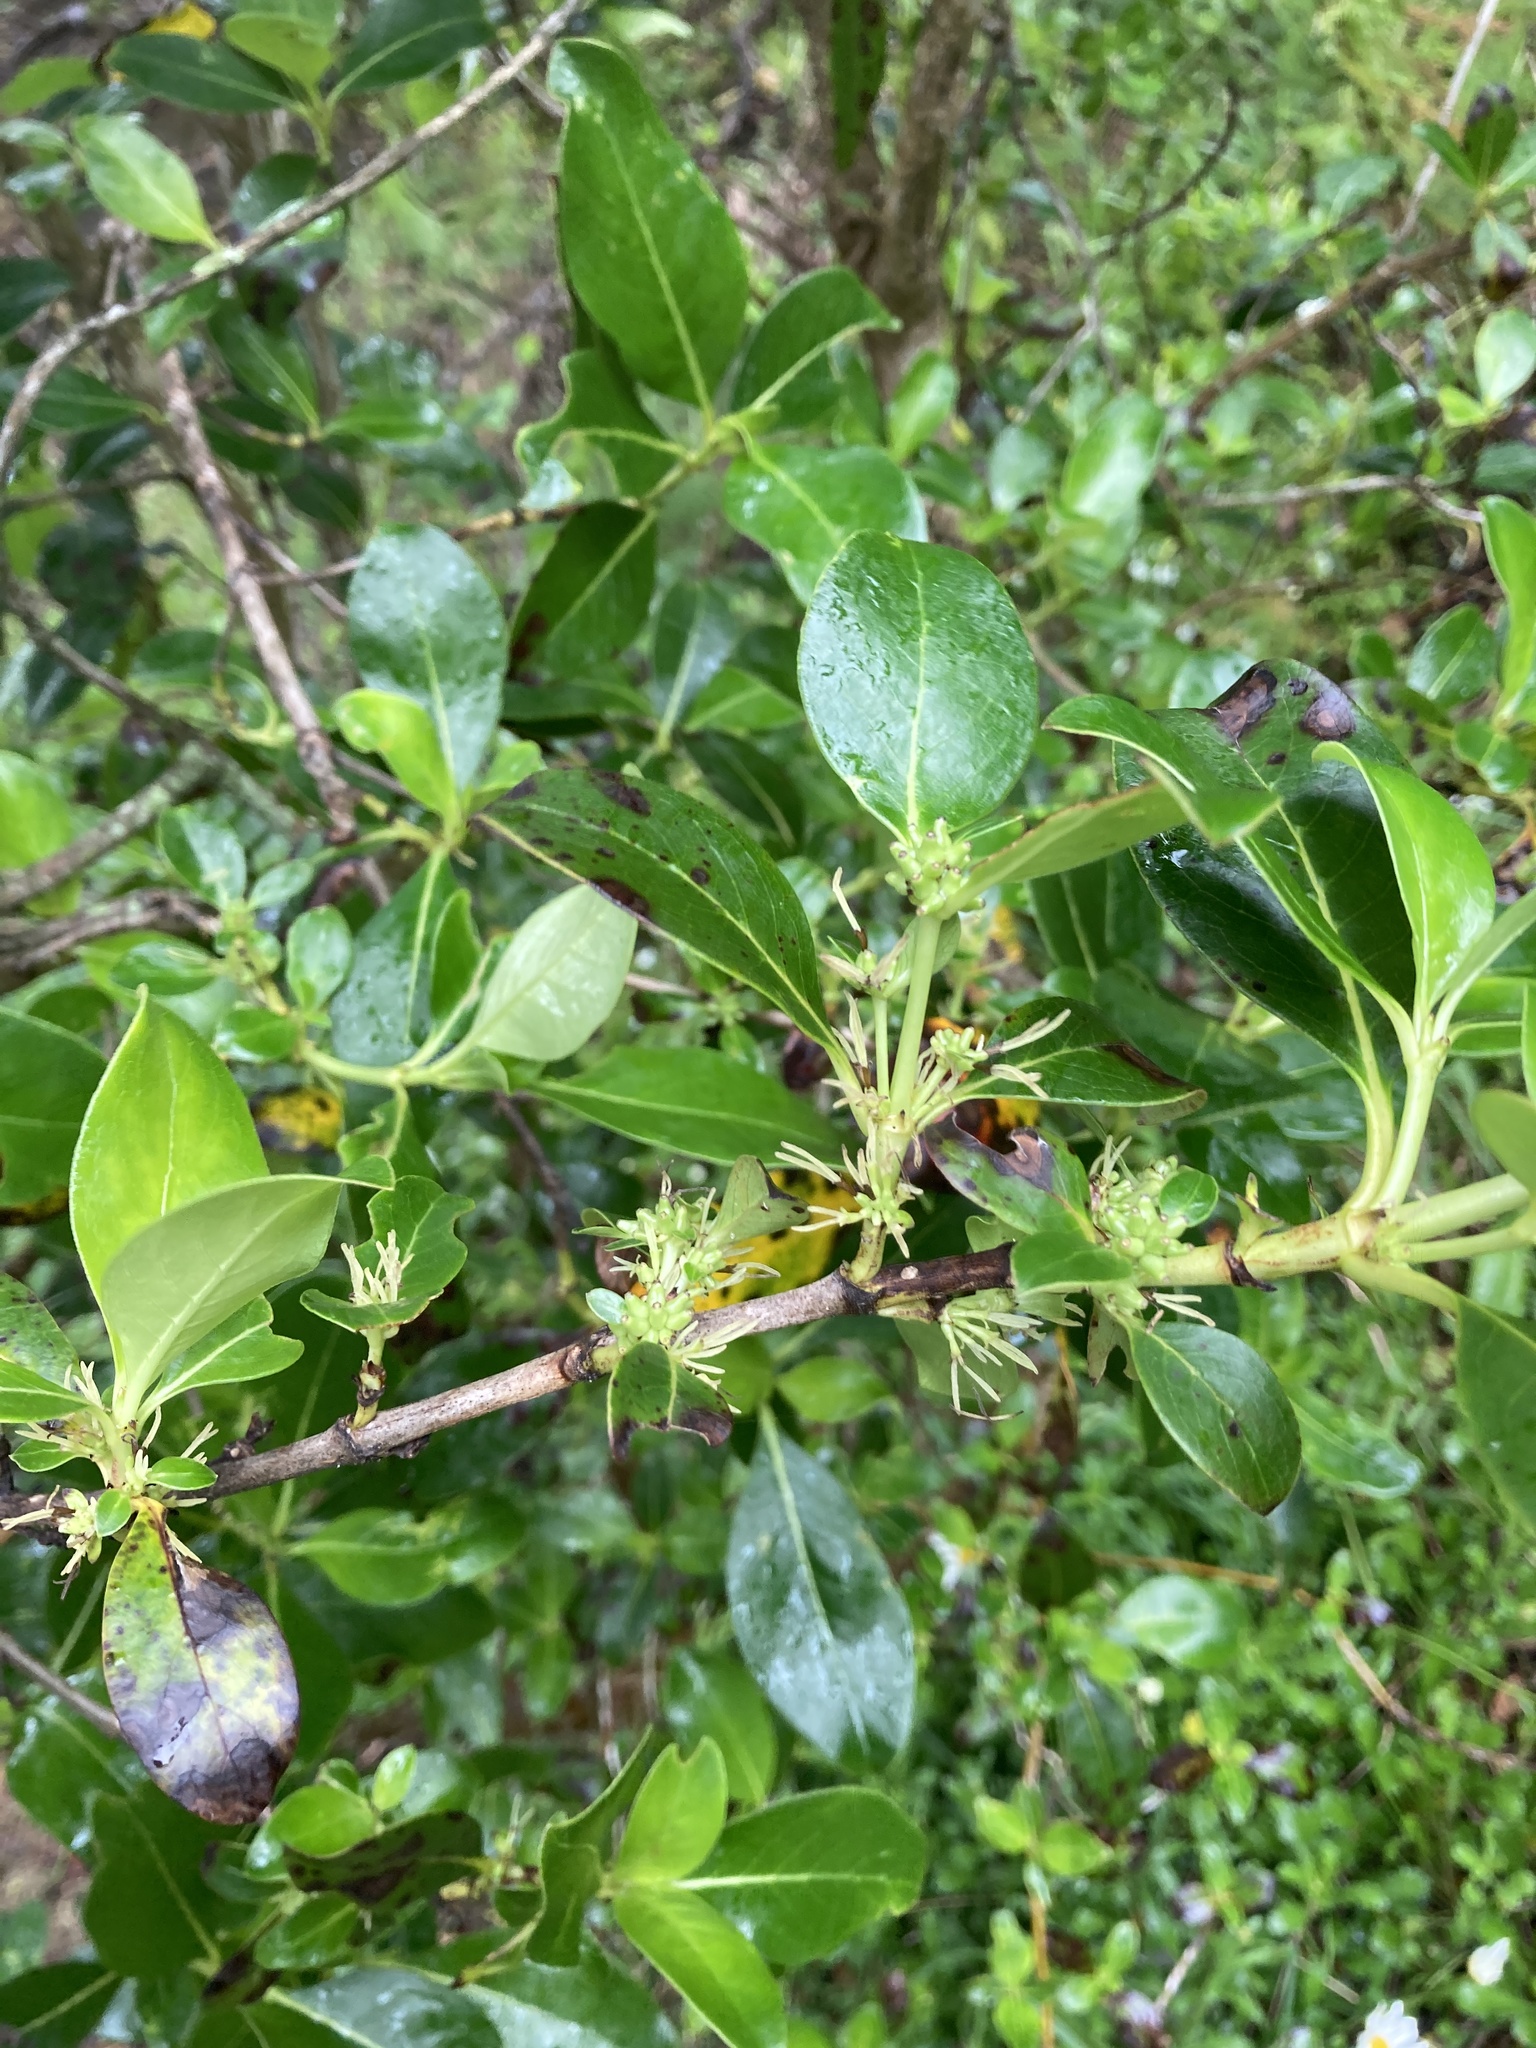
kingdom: Plantae
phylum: Tracheophyta
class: Magnoliopsida
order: Gentianales
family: Rubiaceae
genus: Coprosma
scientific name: Coprosma robusta
